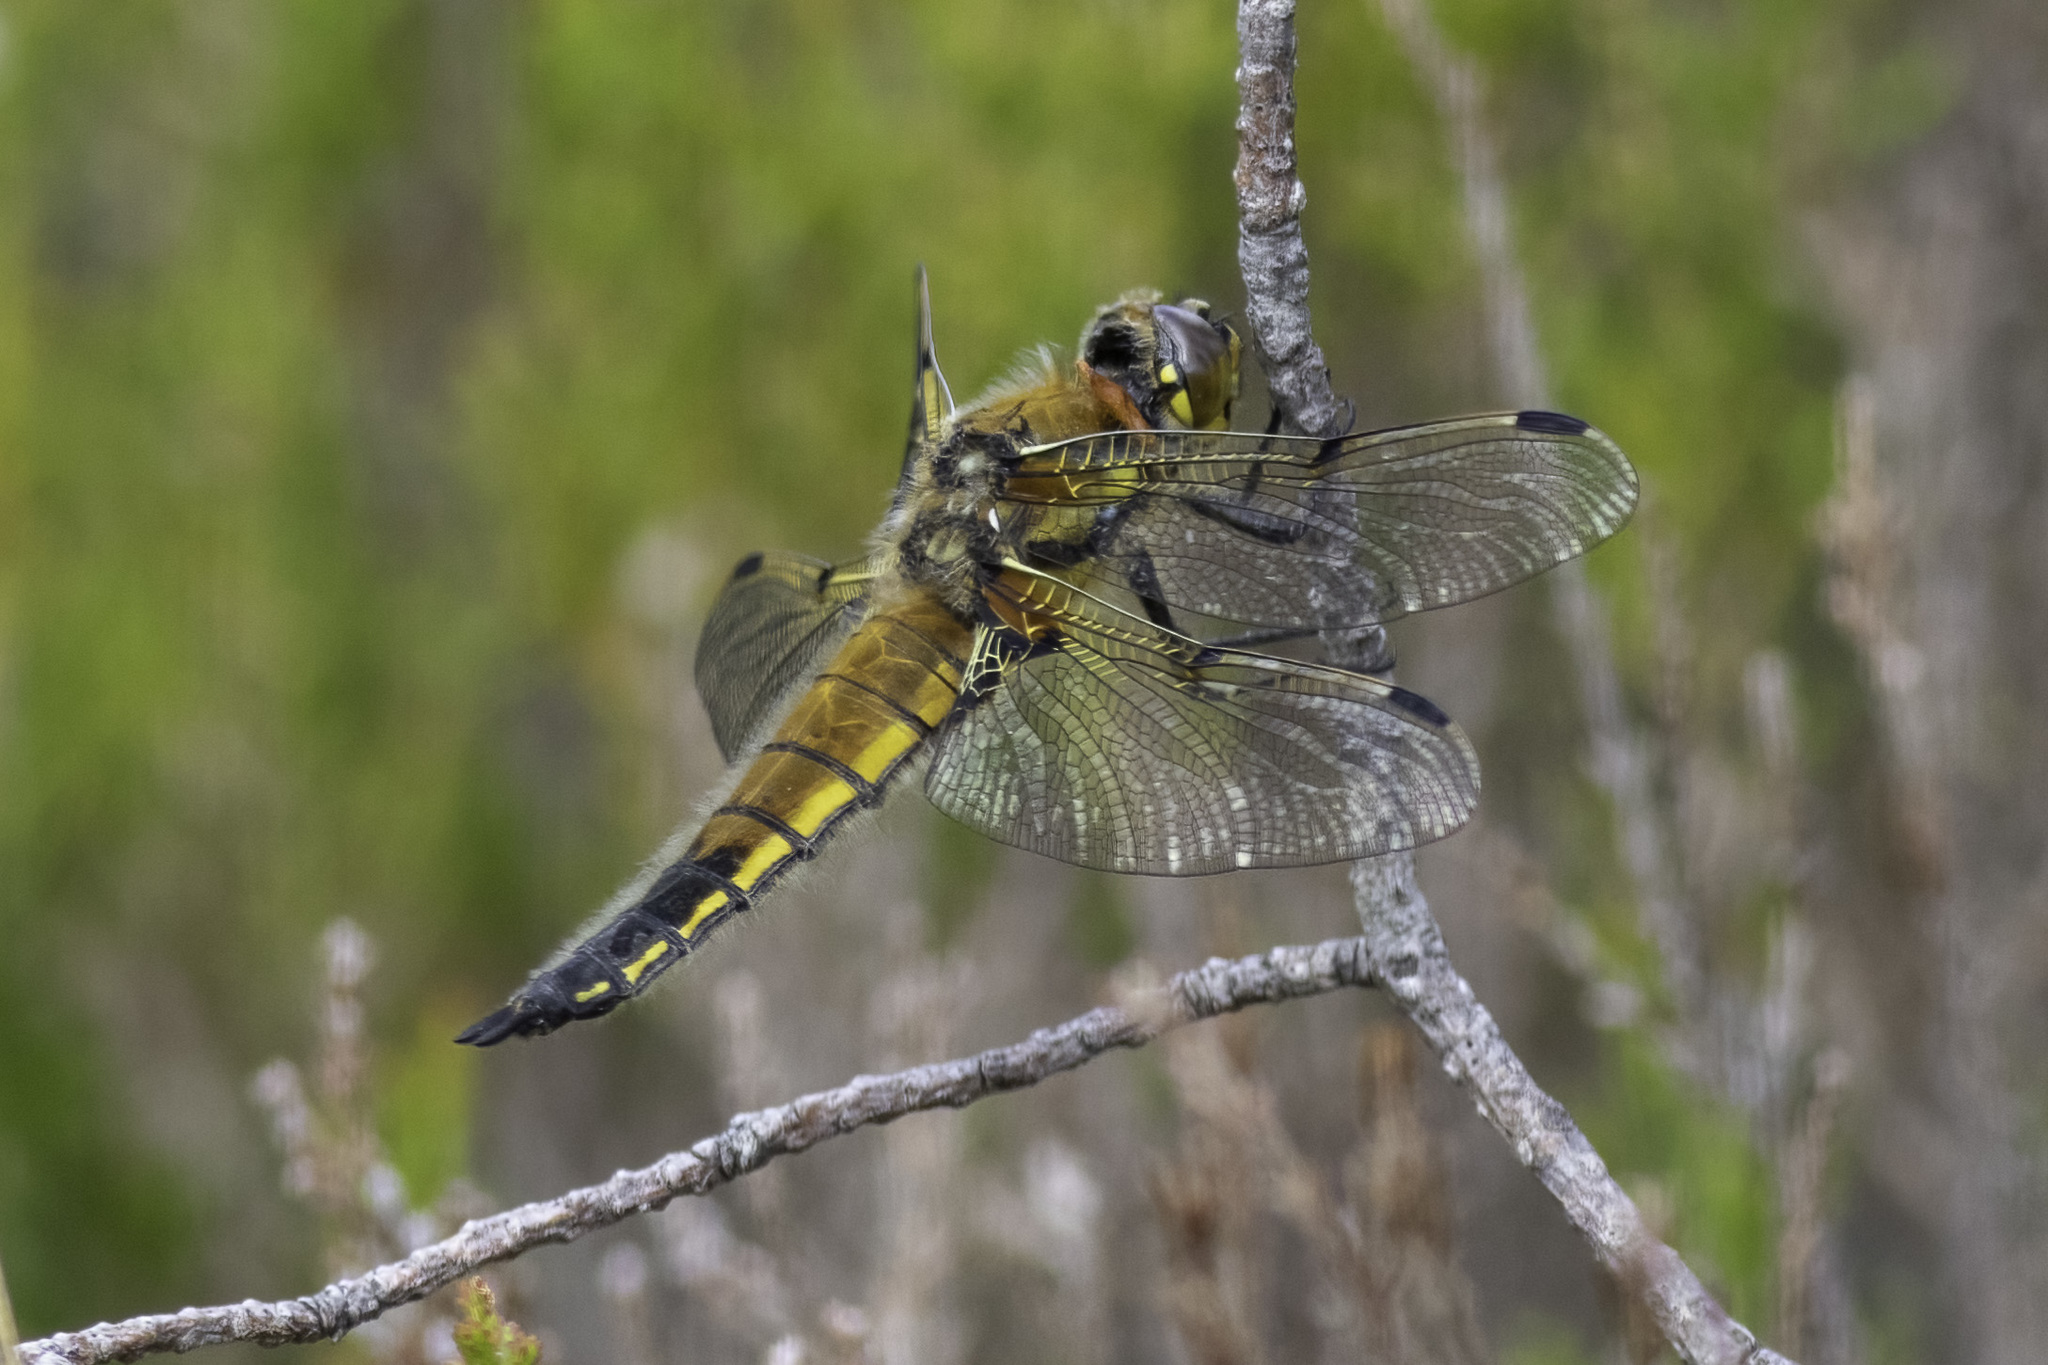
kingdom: Animalia
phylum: Arthropoda
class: Insecta
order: Odonata
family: Libellulidae
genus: Libellula
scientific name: Libellula quadrimaculata
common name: Four-spotted chaser
